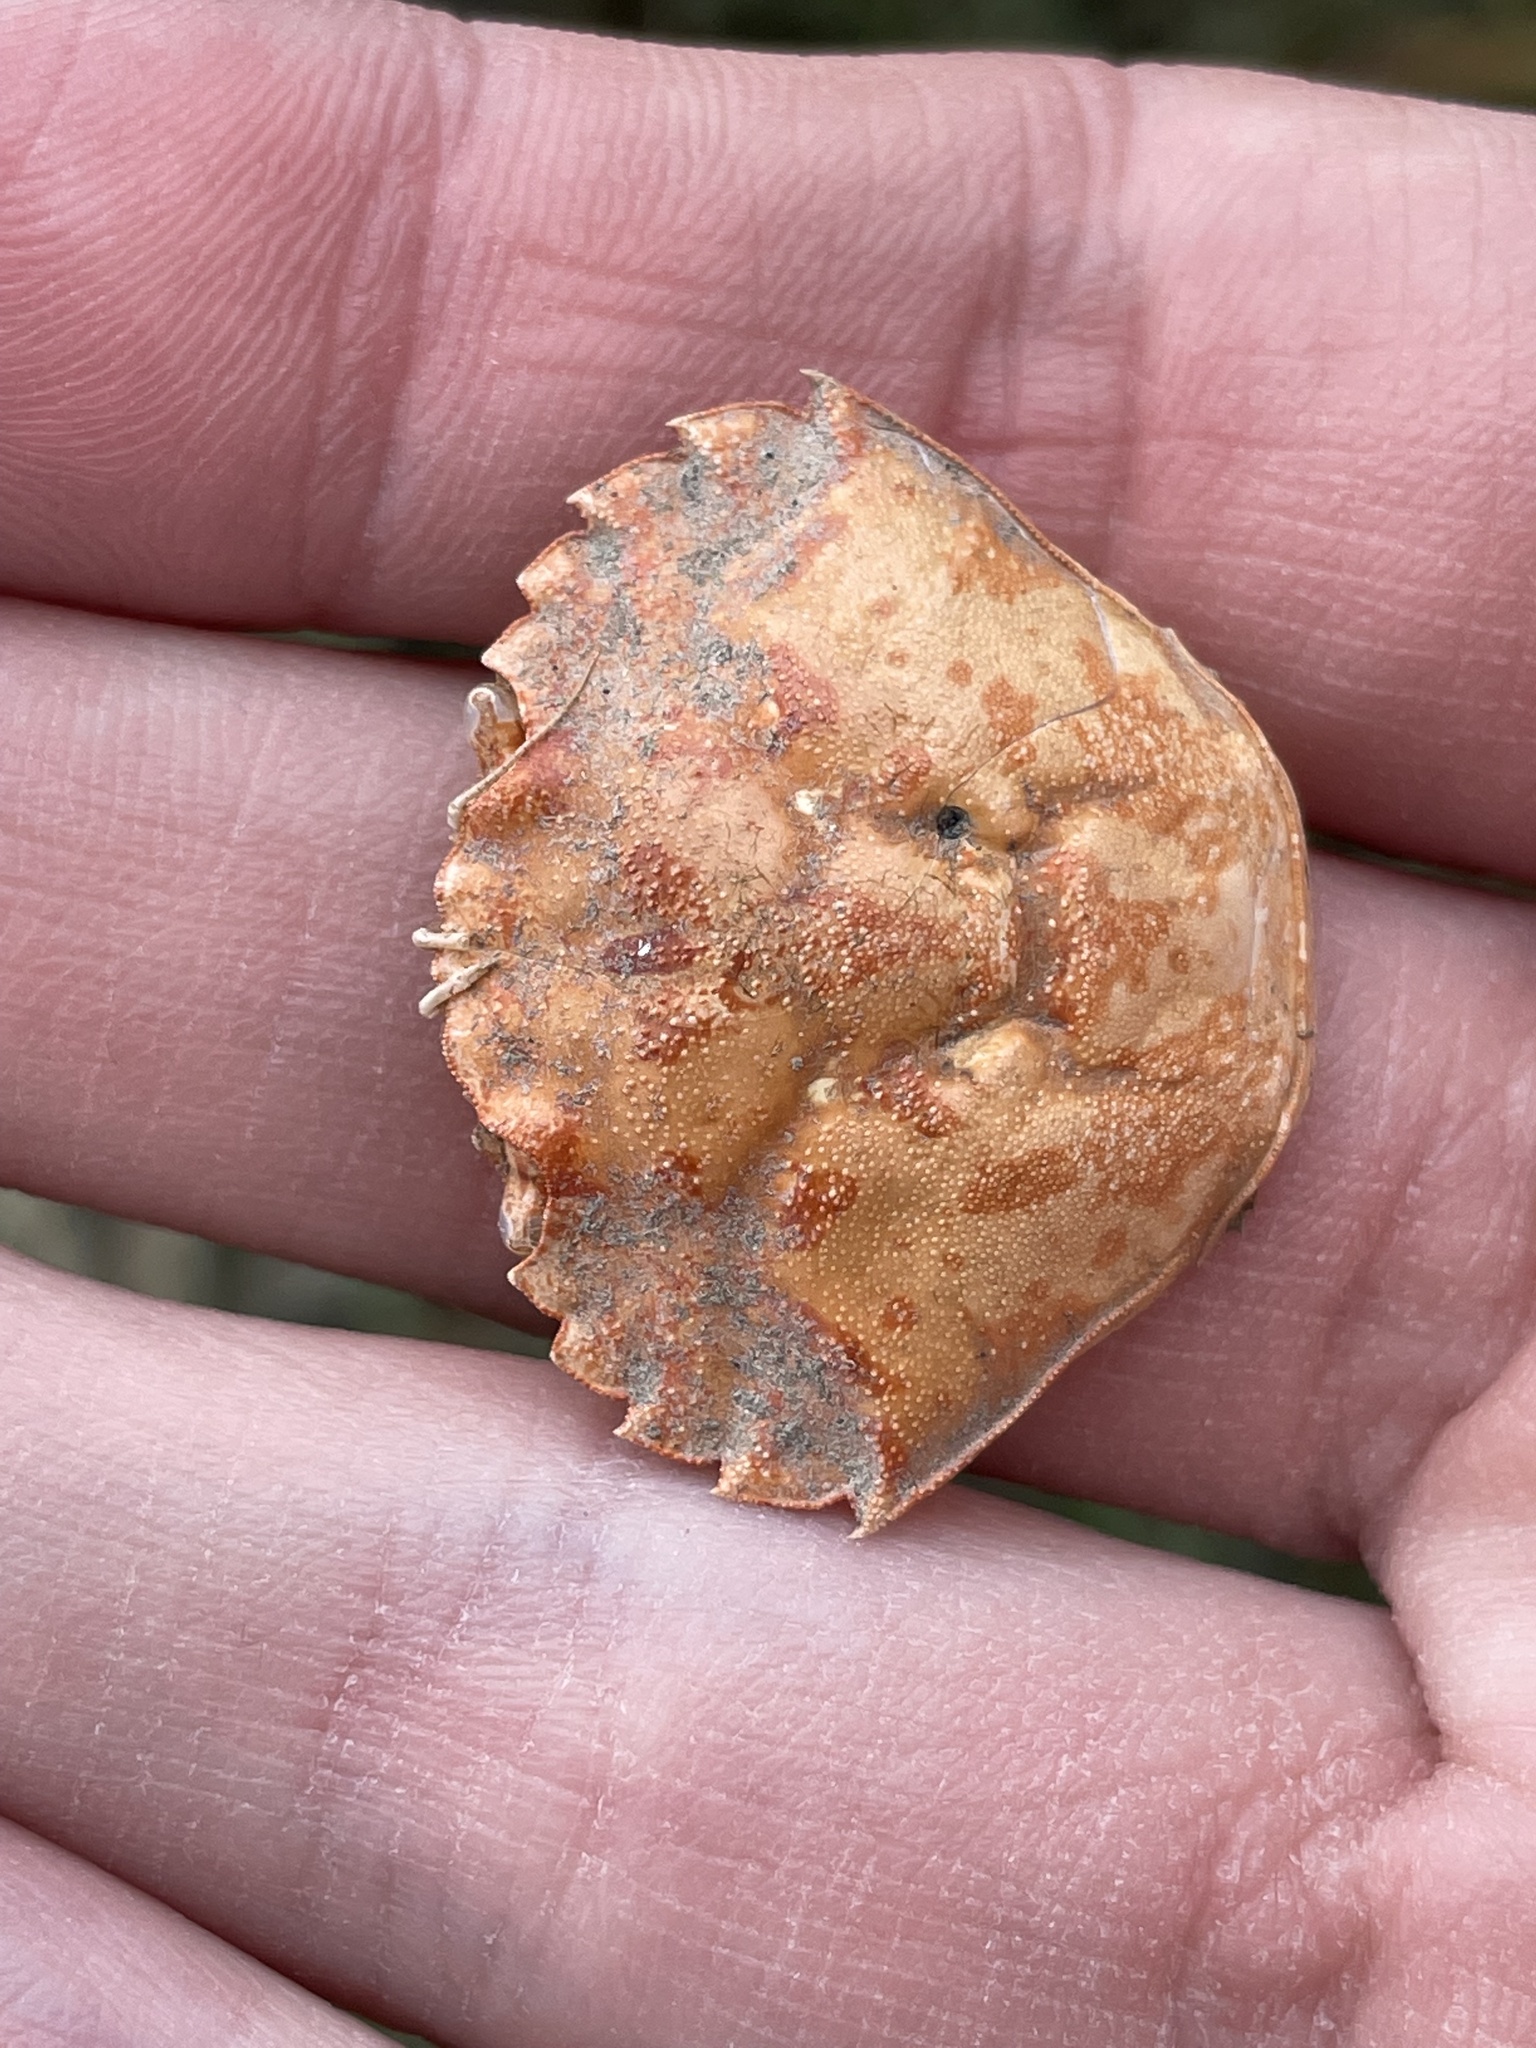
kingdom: Animalia
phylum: Arthropoda
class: Malacostraca
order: Decapoda
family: Carcinidae
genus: Carcinus
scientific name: Carcinus maenas
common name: European green crab
